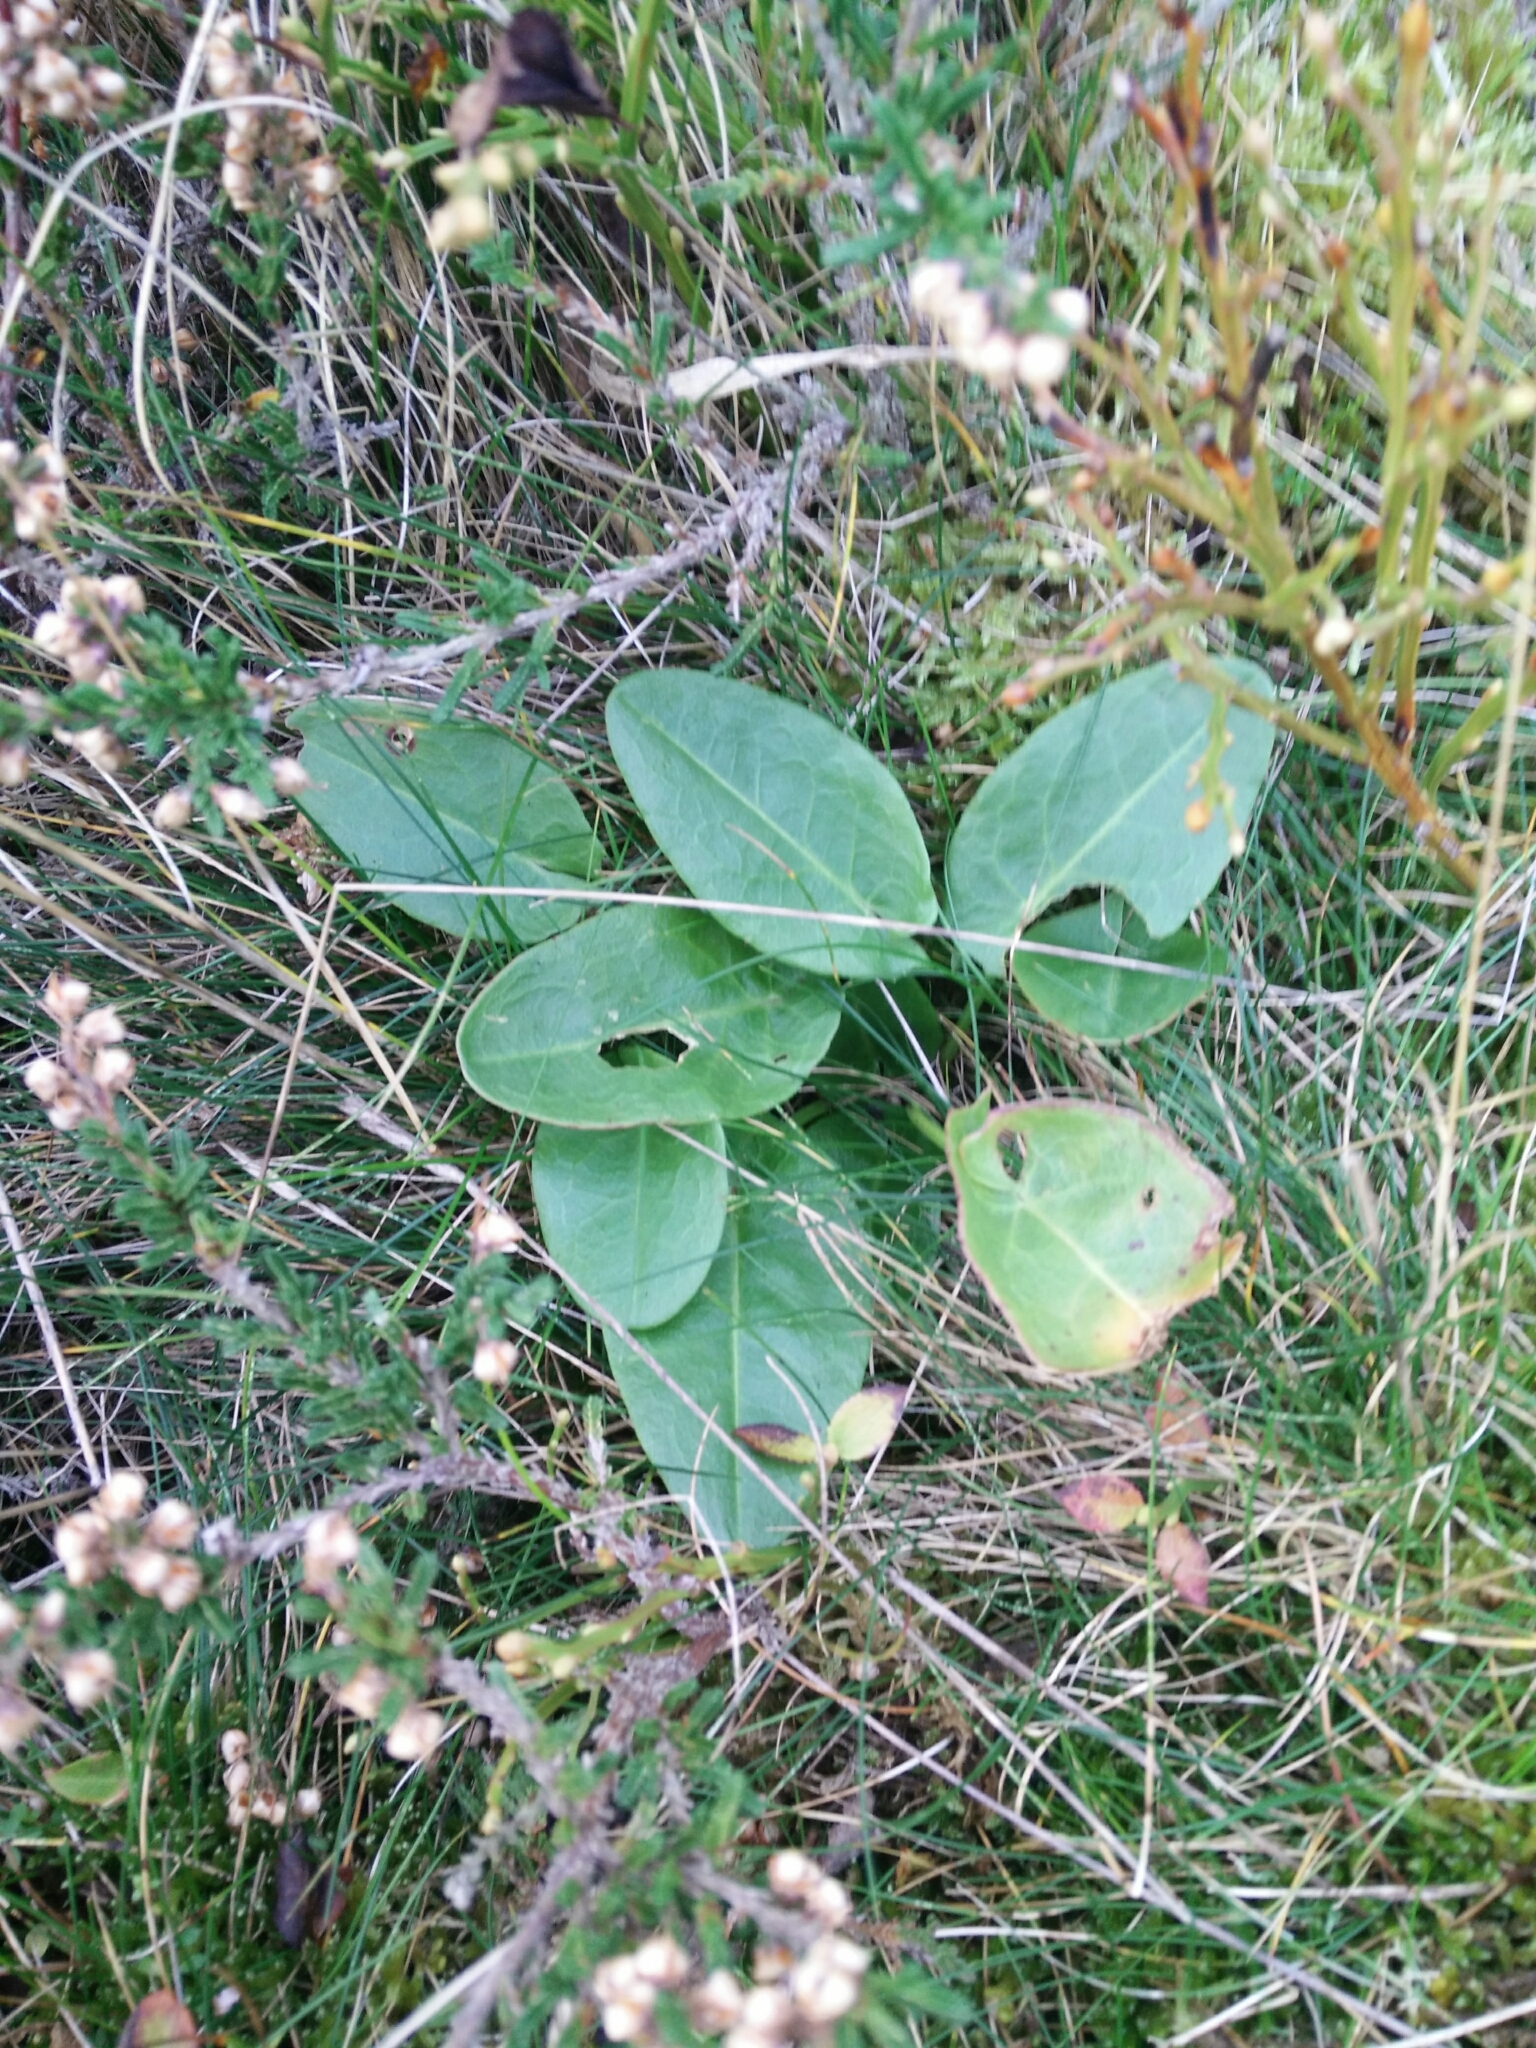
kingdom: Plantae
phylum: Tracheophyta
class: Magnoliopsida
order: Caryophyllales
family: Polygonaceae
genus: Rumex
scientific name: Rumex acetosa
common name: Garden sorrel
